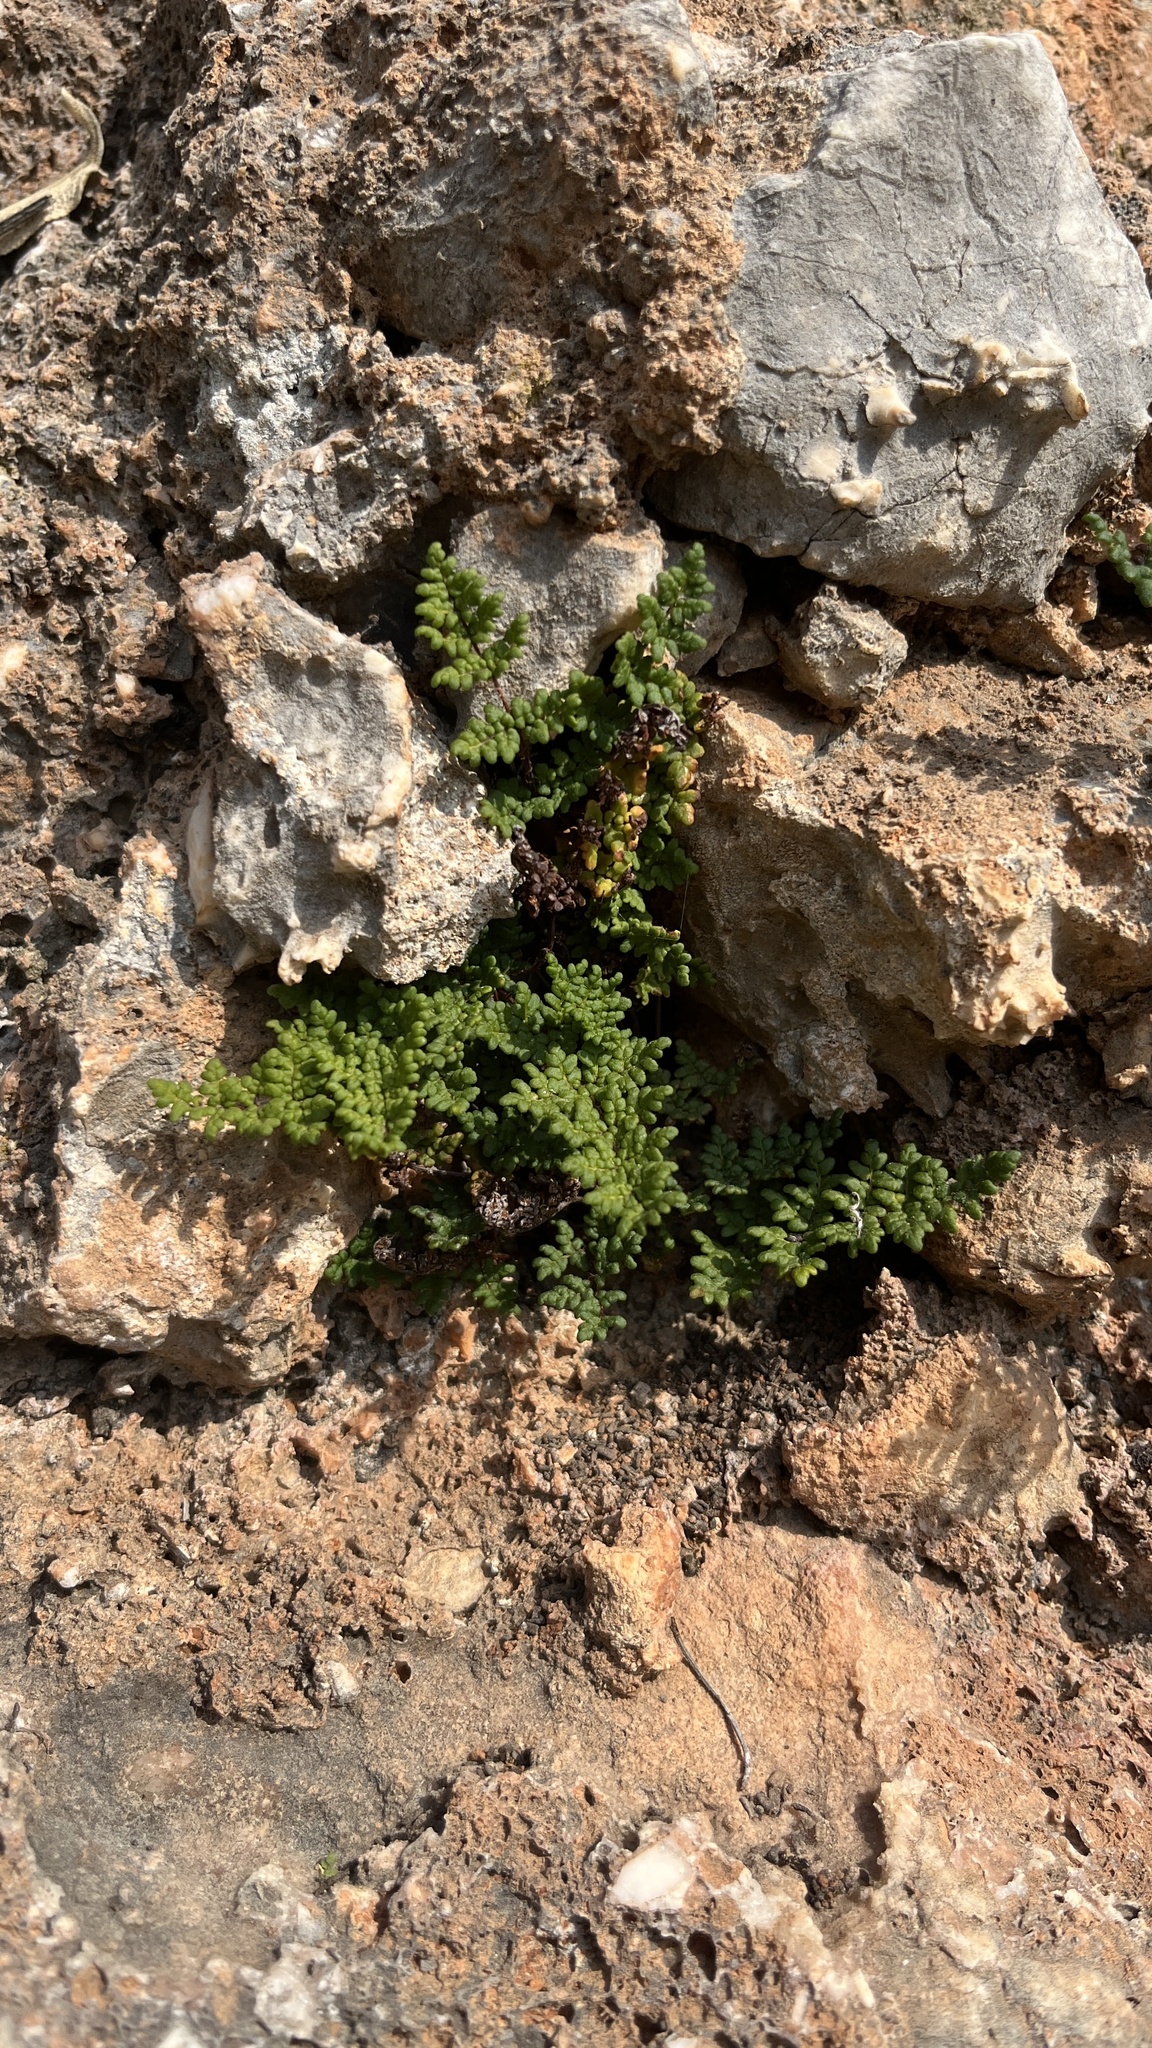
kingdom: Plantae
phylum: Tracheophyta
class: Polypodiopsida
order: Polypodiales
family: Pteridaceae
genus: Oeosporangium
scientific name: Oeosporangium pteridioides
